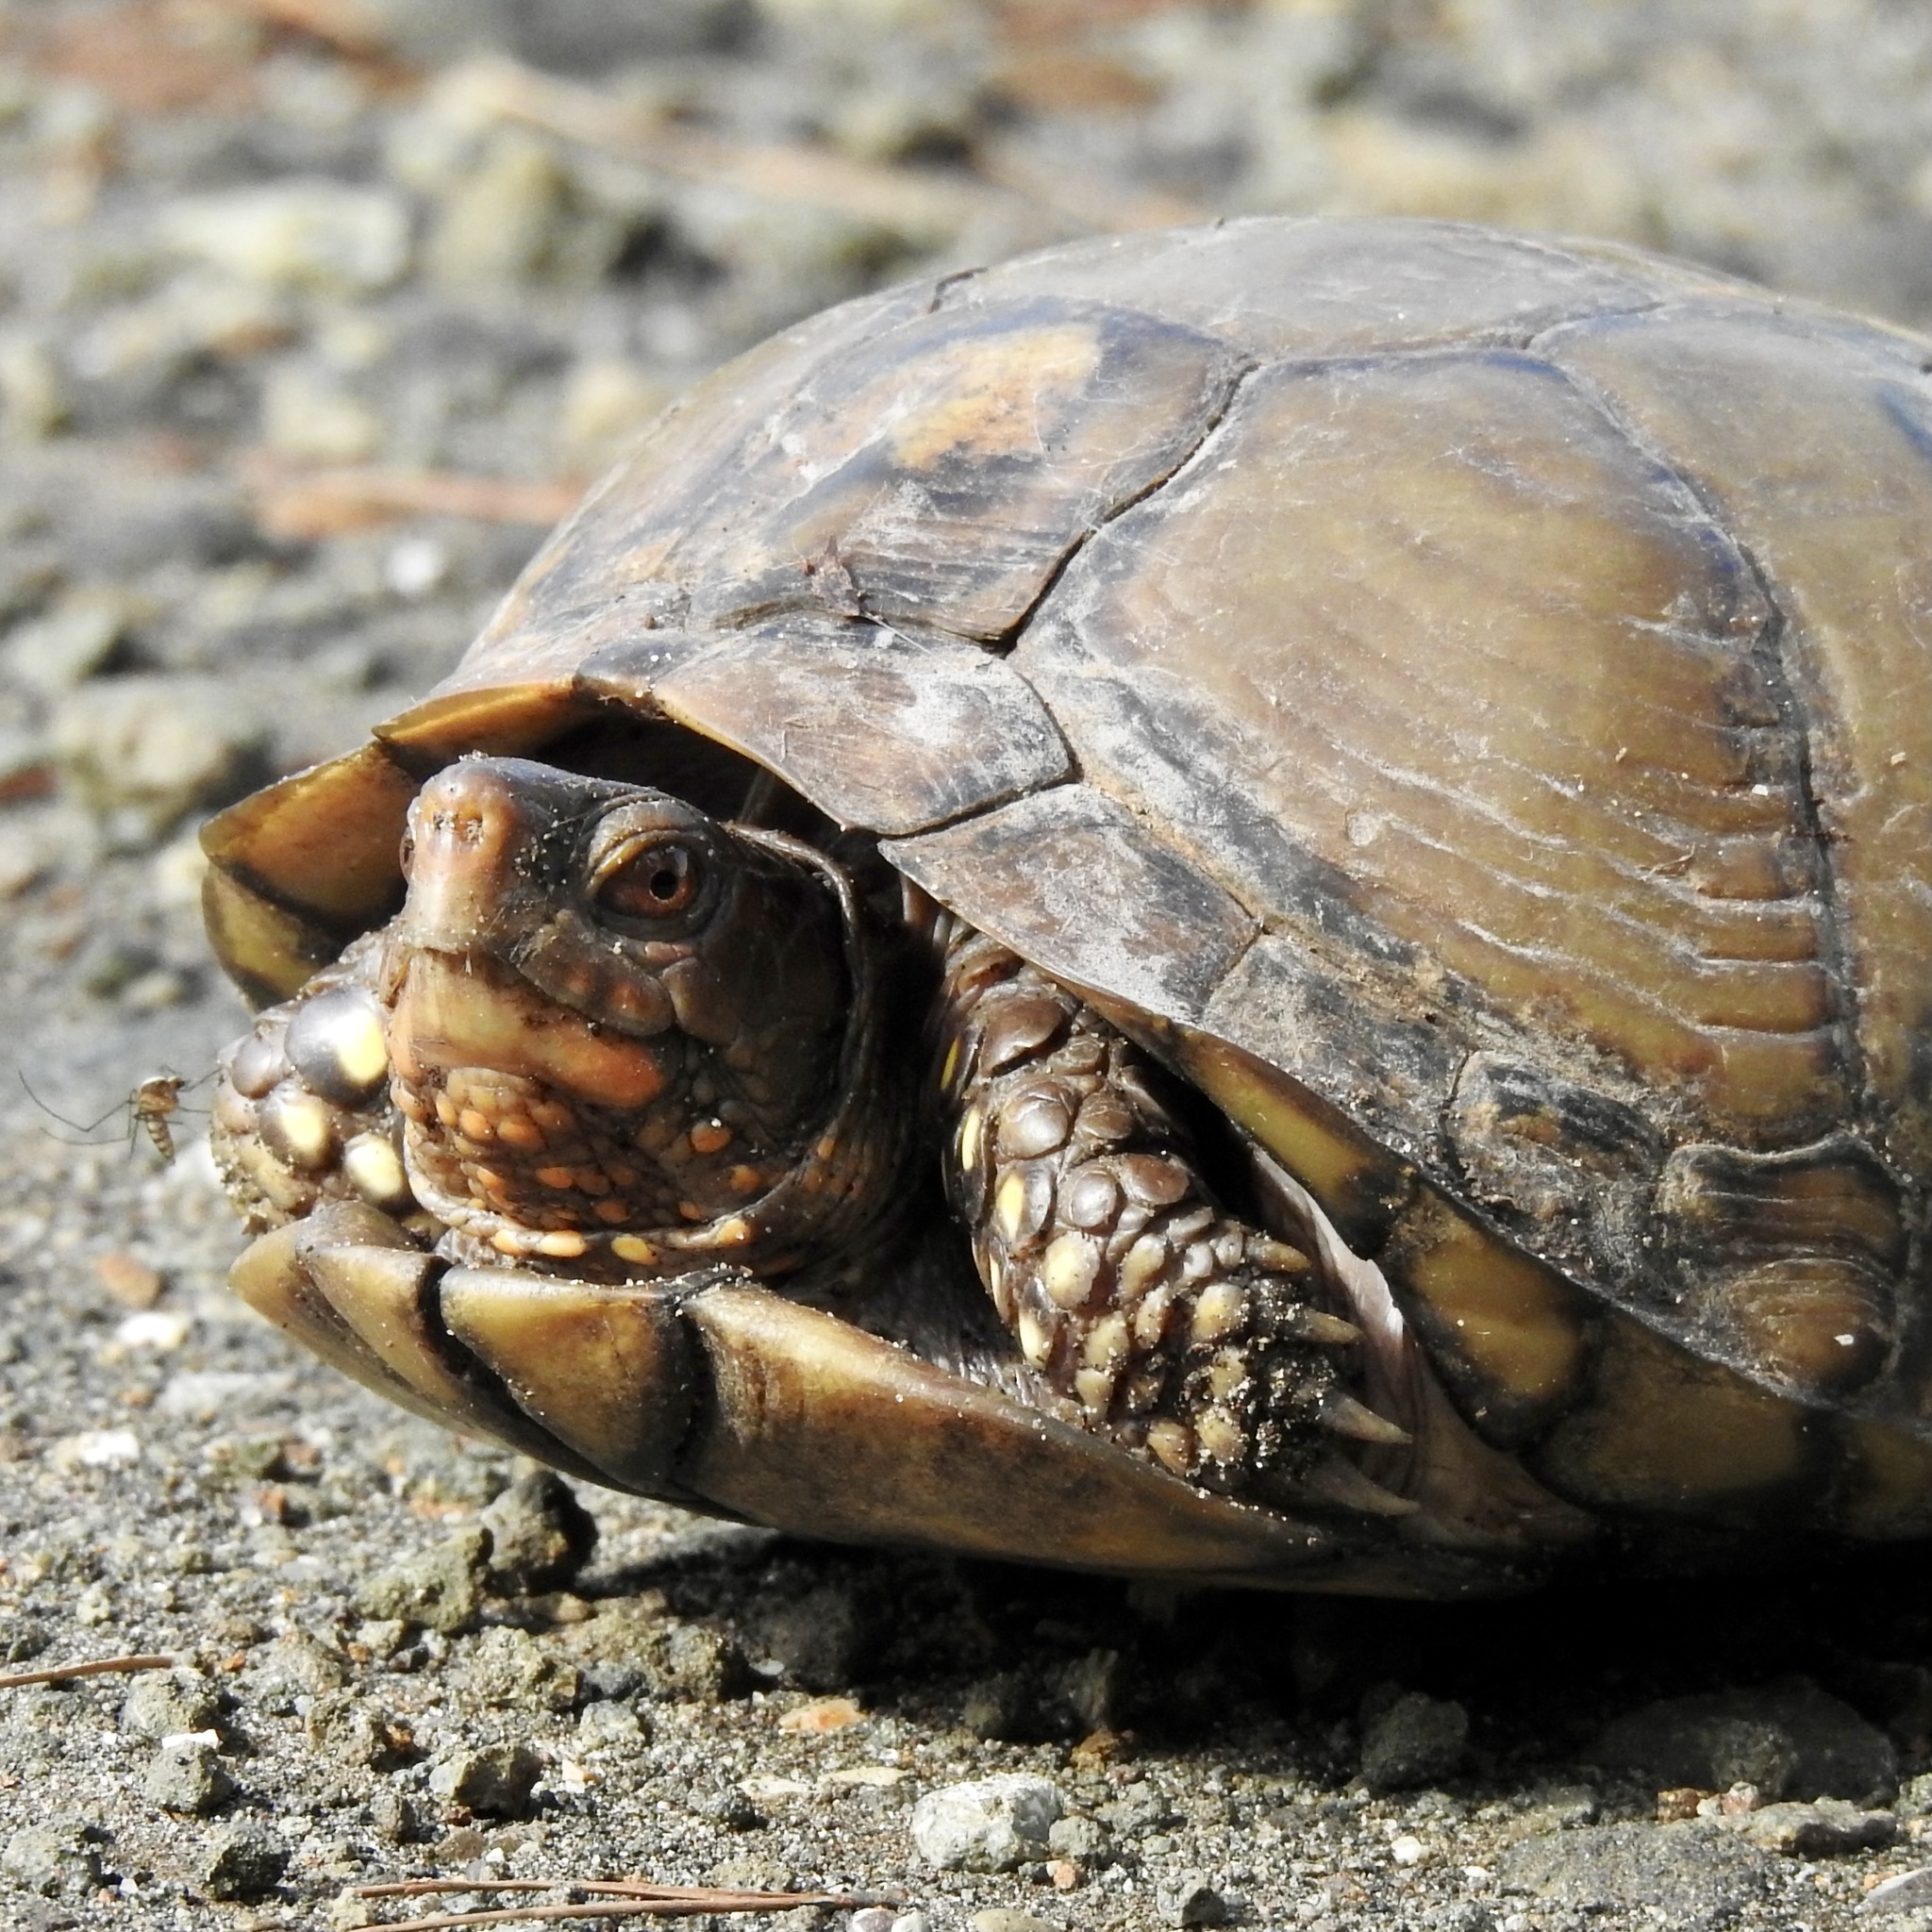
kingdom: Animalia
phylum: Chordata
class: Testudines
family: Emydidae
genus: Terrapene
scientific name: Terrapene carolina
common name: Common box turtle
